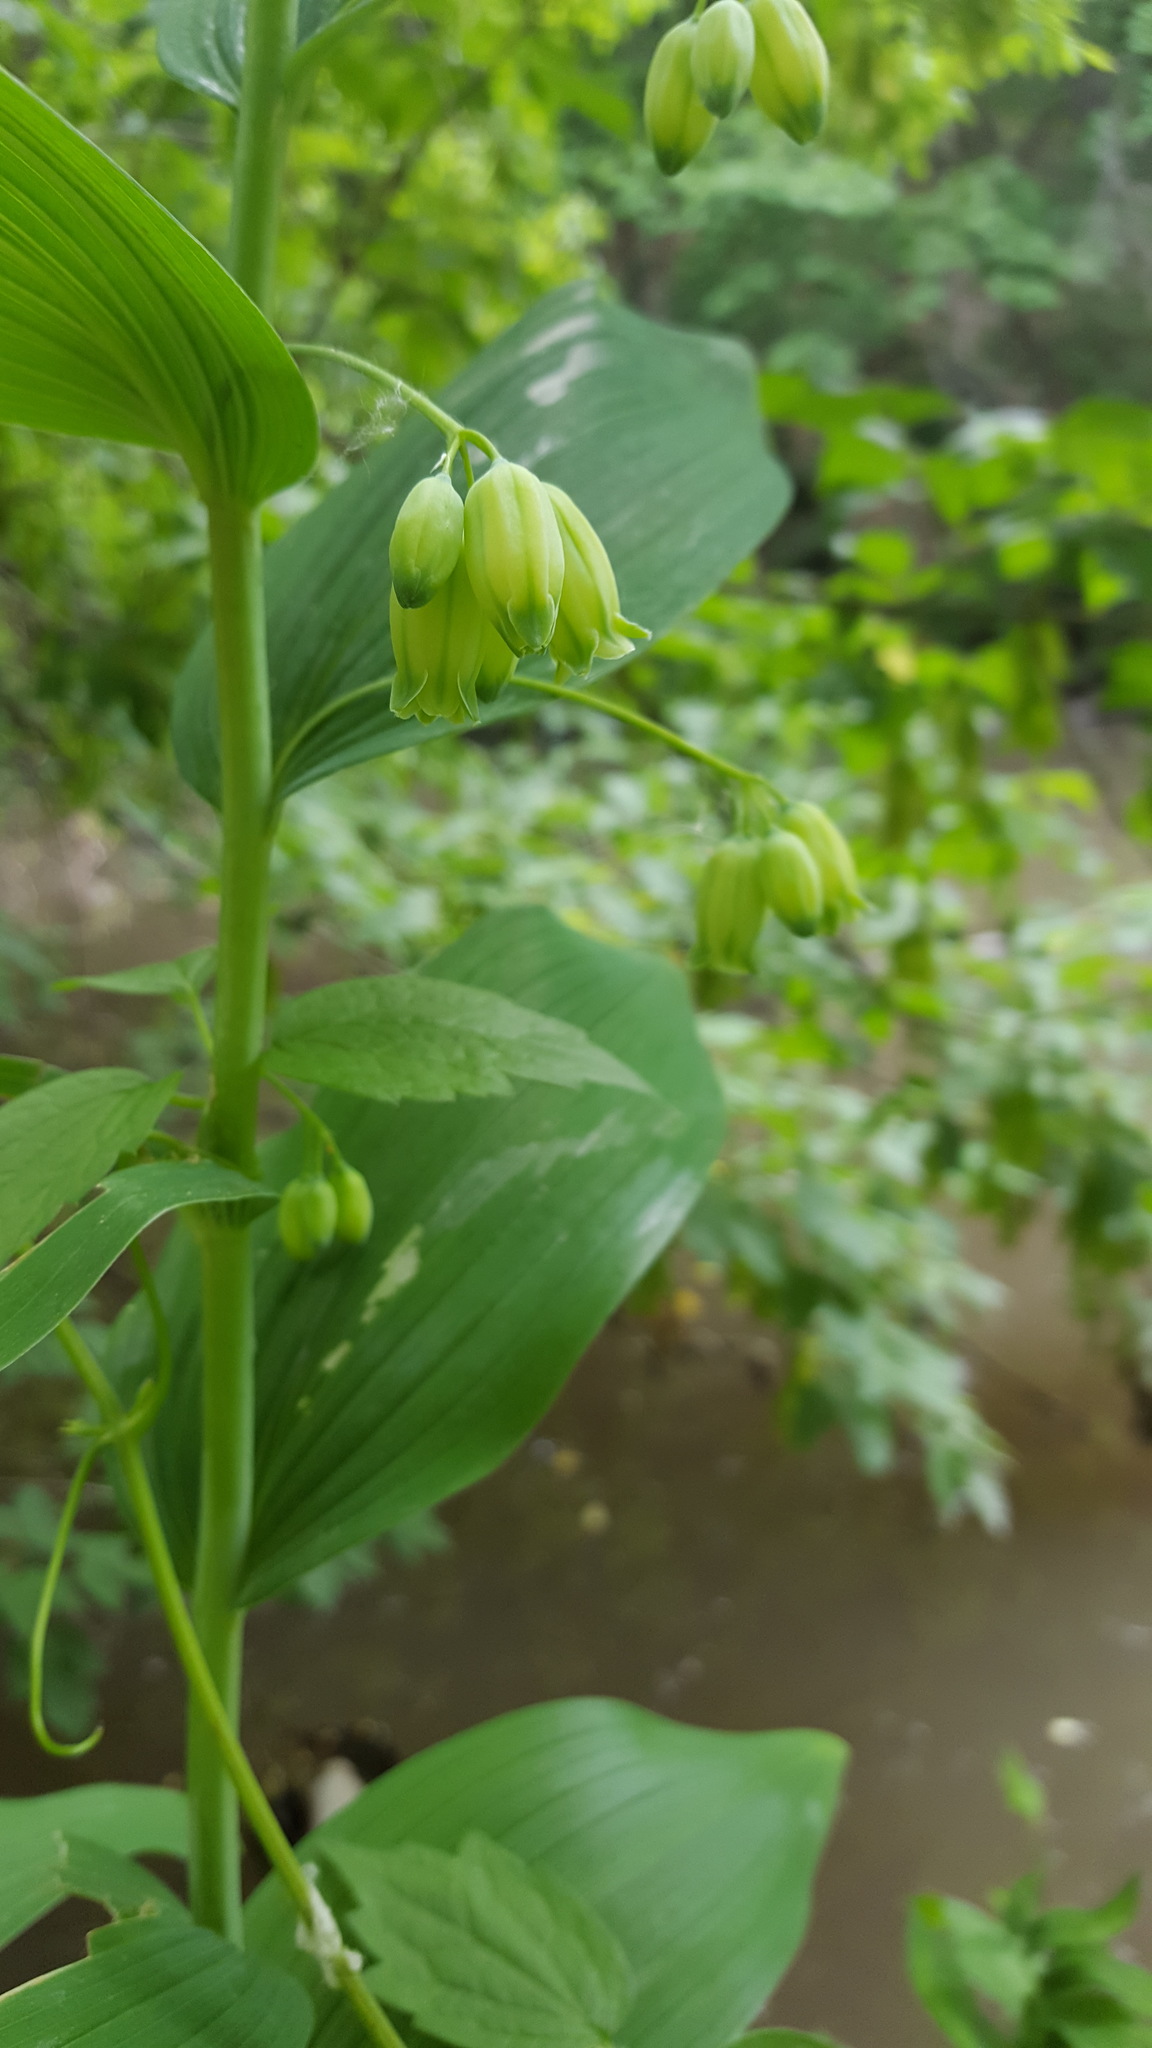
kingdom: Plantae
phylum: Tracheophyta
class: Liliopsida
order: Asparagales
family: Asparagaceae
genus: Polygonatum
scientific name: Polygonatum biflorum
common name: American solomon's-seal
